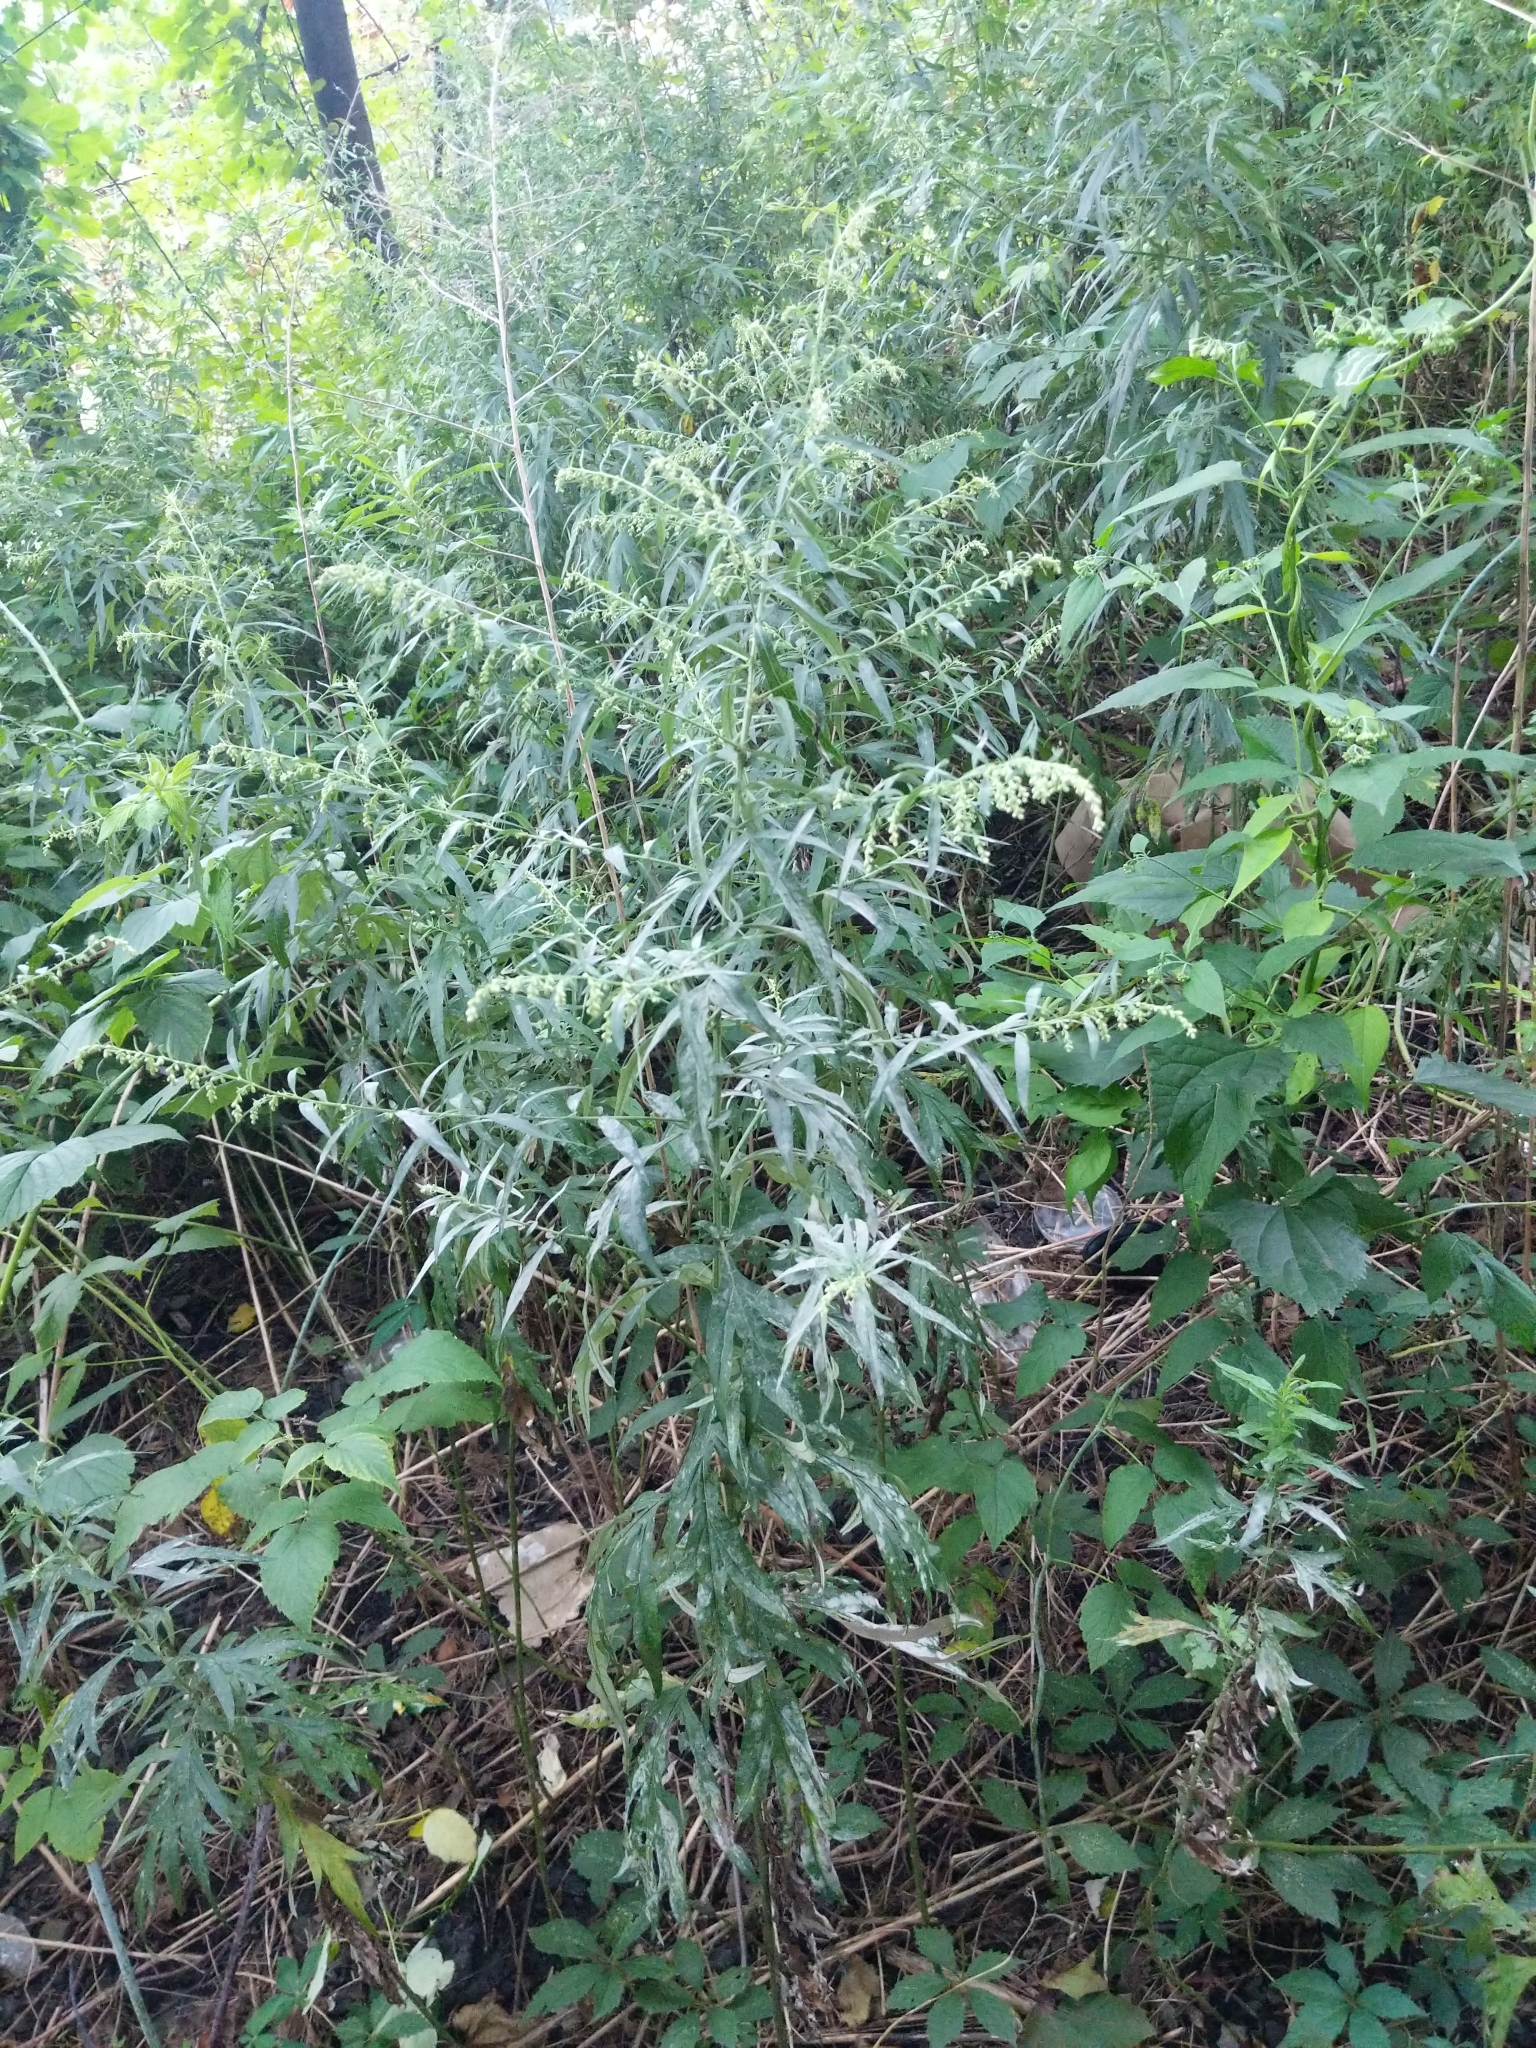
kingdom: Plantae
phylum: Tracheophyta
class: Magnoliopsida
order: Asterales
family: Asteraceae
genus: Artemisia
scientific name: Artemisia vulgaris
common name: Mugwort
